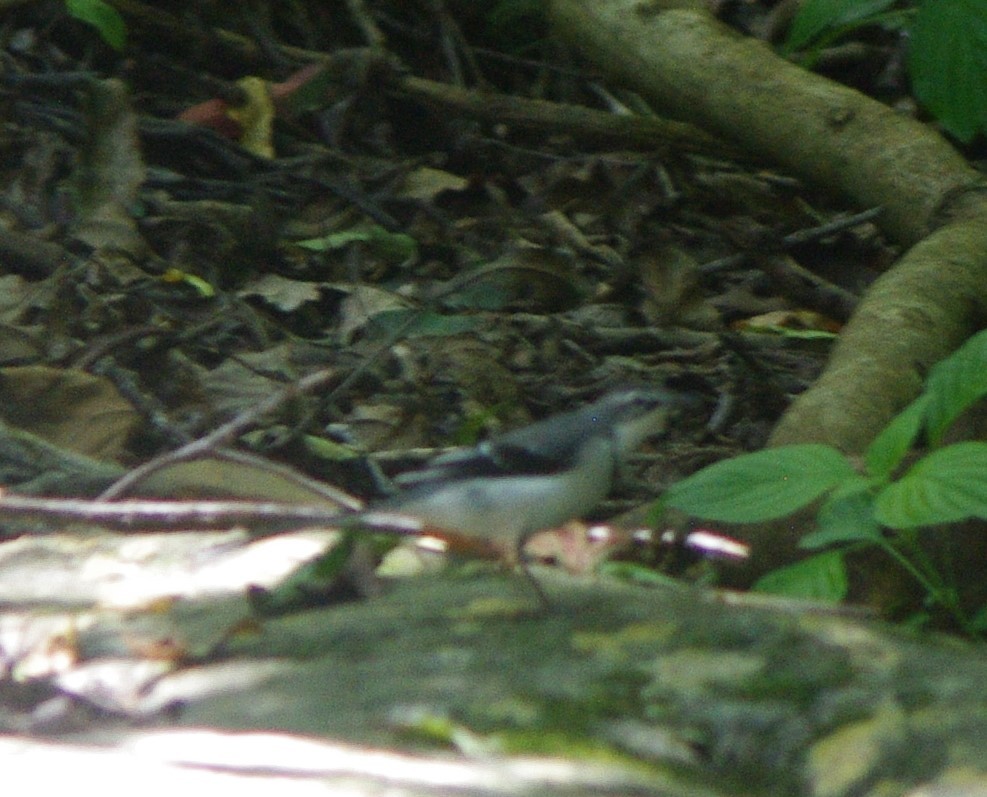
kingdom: Animalia
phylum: Chordata
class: Aves
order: Passeriformes
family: Motacillidae
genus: Motacilla
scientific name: Motacilla clara
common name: Mountain wagtail
